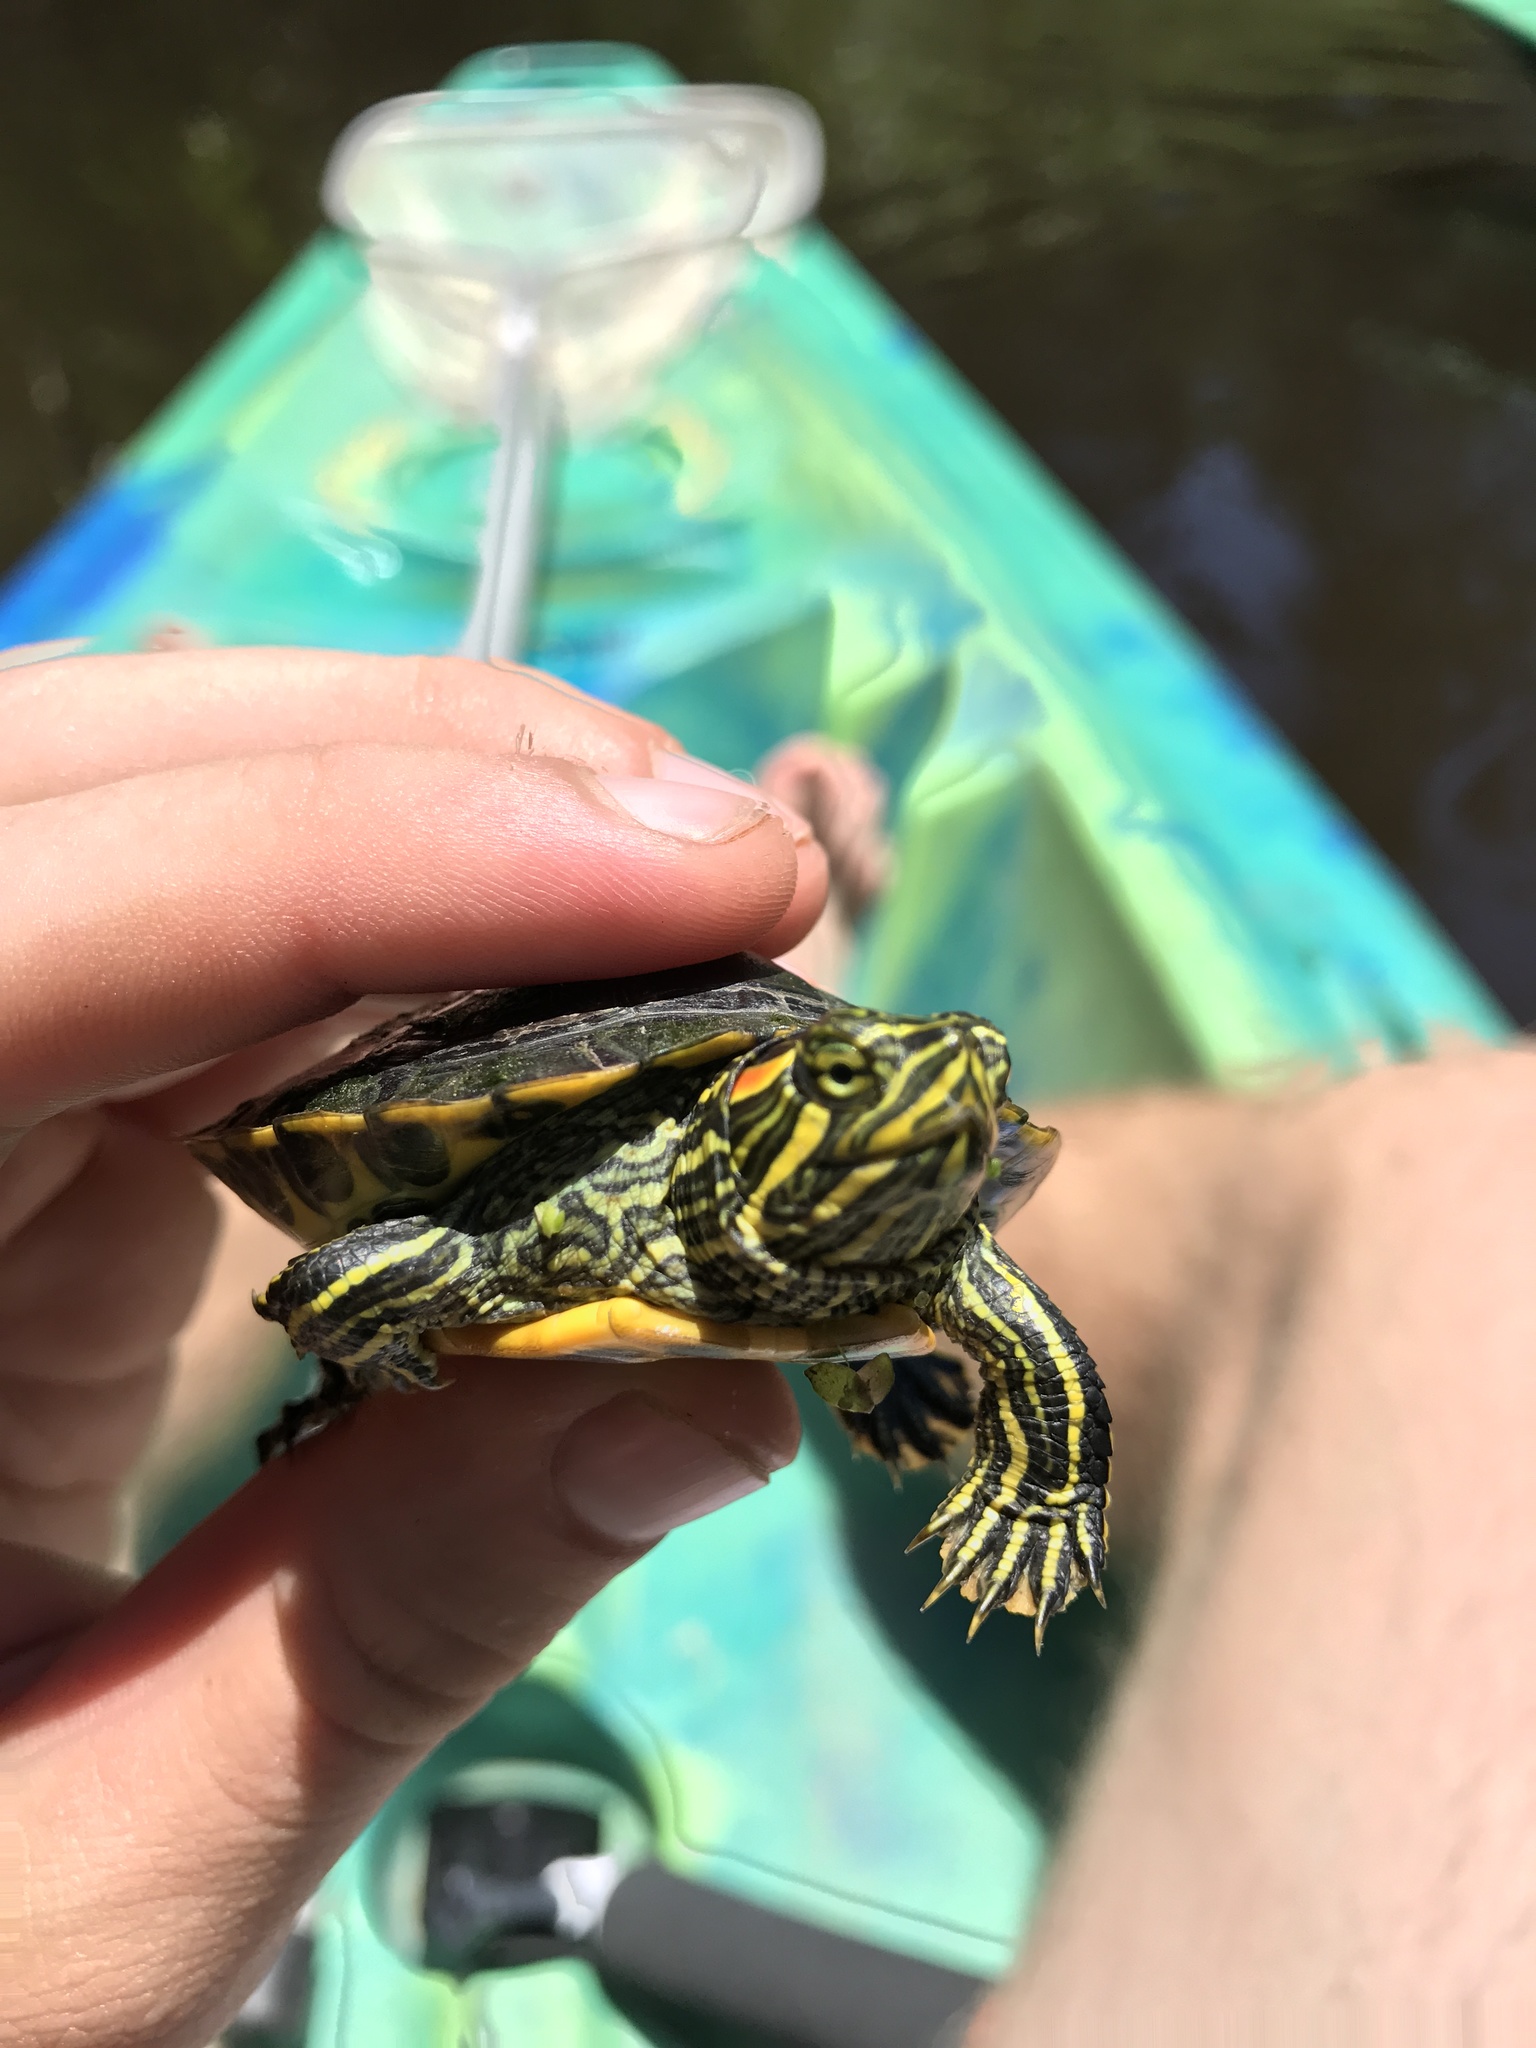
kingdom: Animalia
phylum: Chordata
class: Testudines
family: Emydidae
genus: Trachemys
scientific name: Trachemys scripta
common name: Slider
